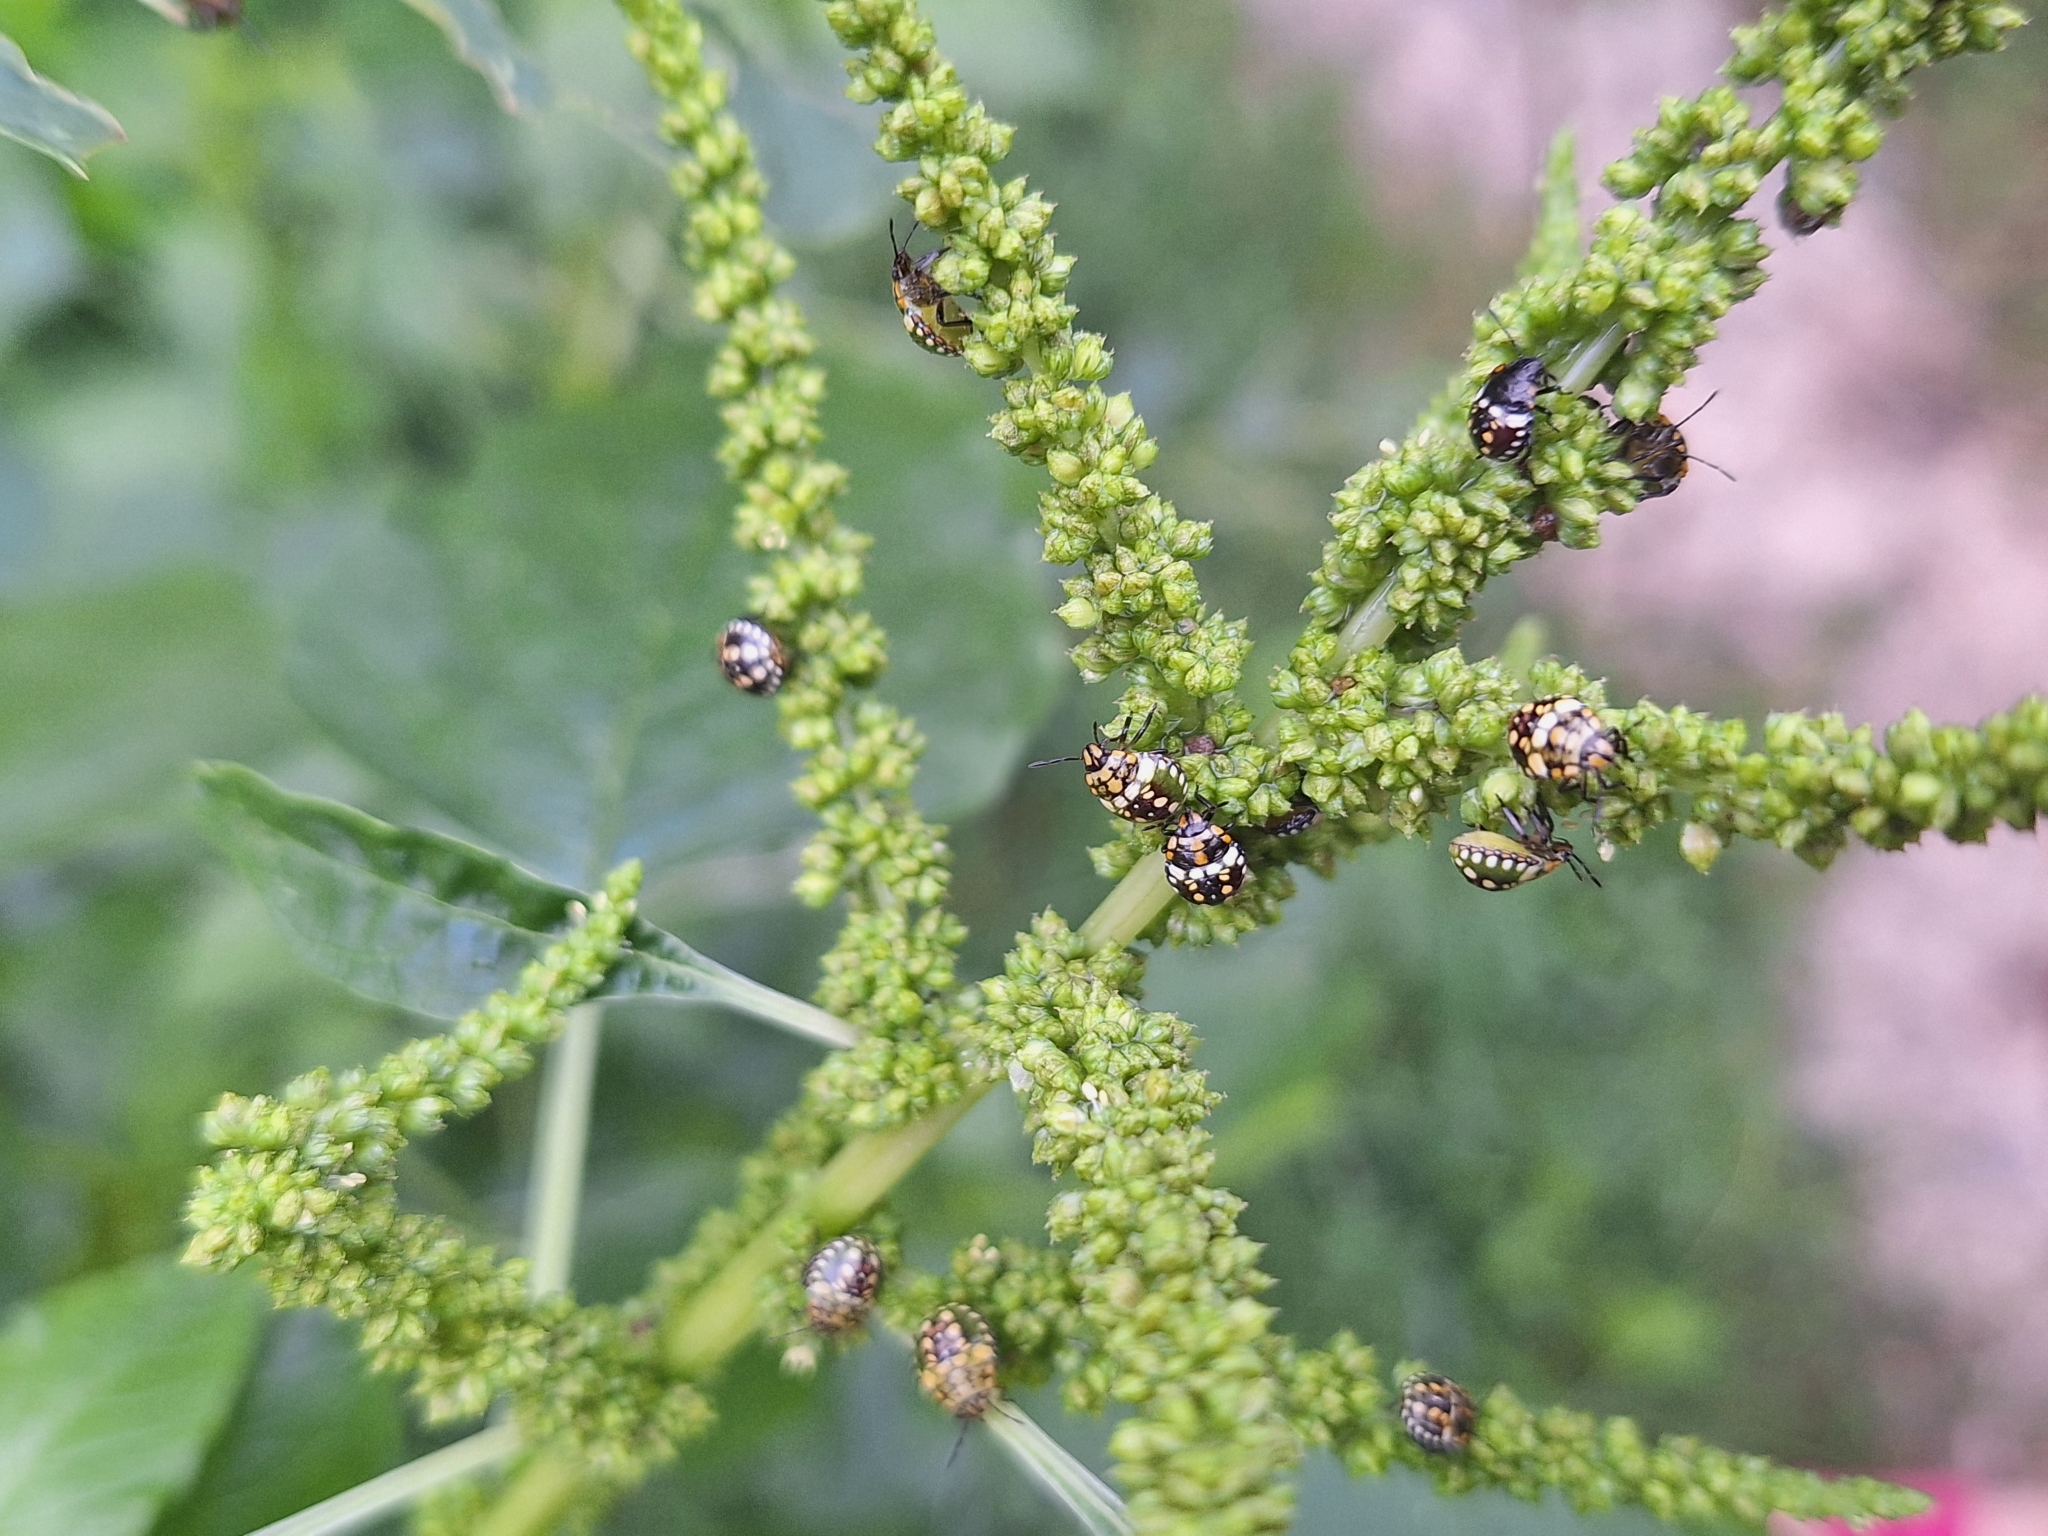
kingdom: Animalia
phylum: Arthropoda
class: Insecta
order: Hemiptera
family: Pentatomidae
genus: Nezara
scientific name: Nezara viridula
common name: Southern green stink bug
